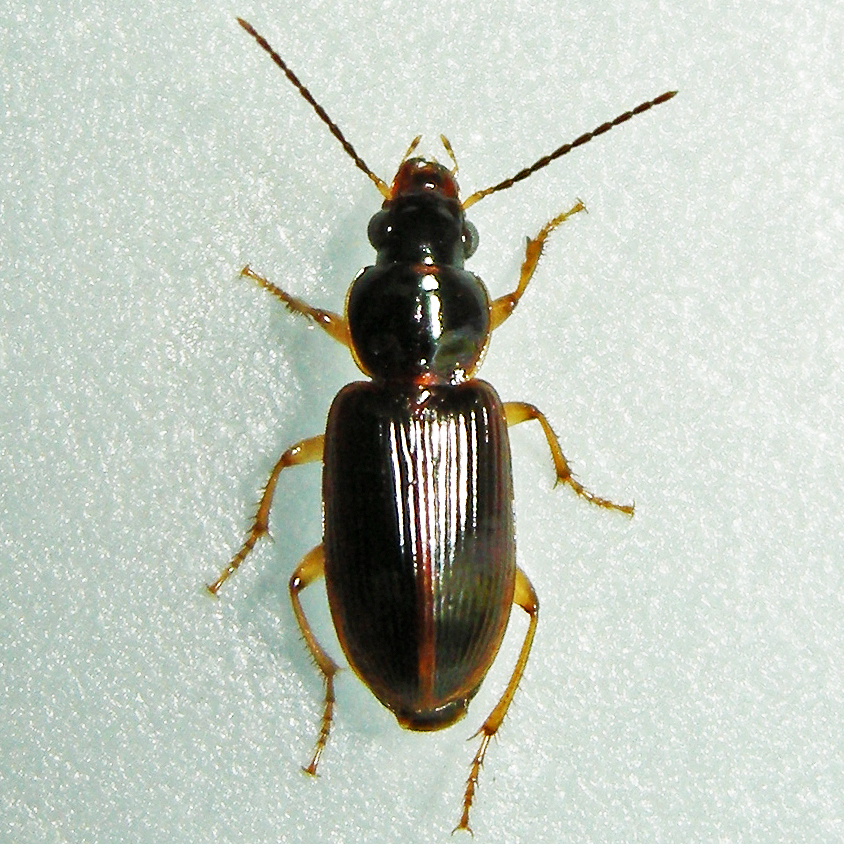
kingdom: Animalia
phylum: Arthropoda
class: Insecta
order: Coleoptera
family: Carabidae
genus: Stenolophus
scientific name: Stenolophus ochropezus
